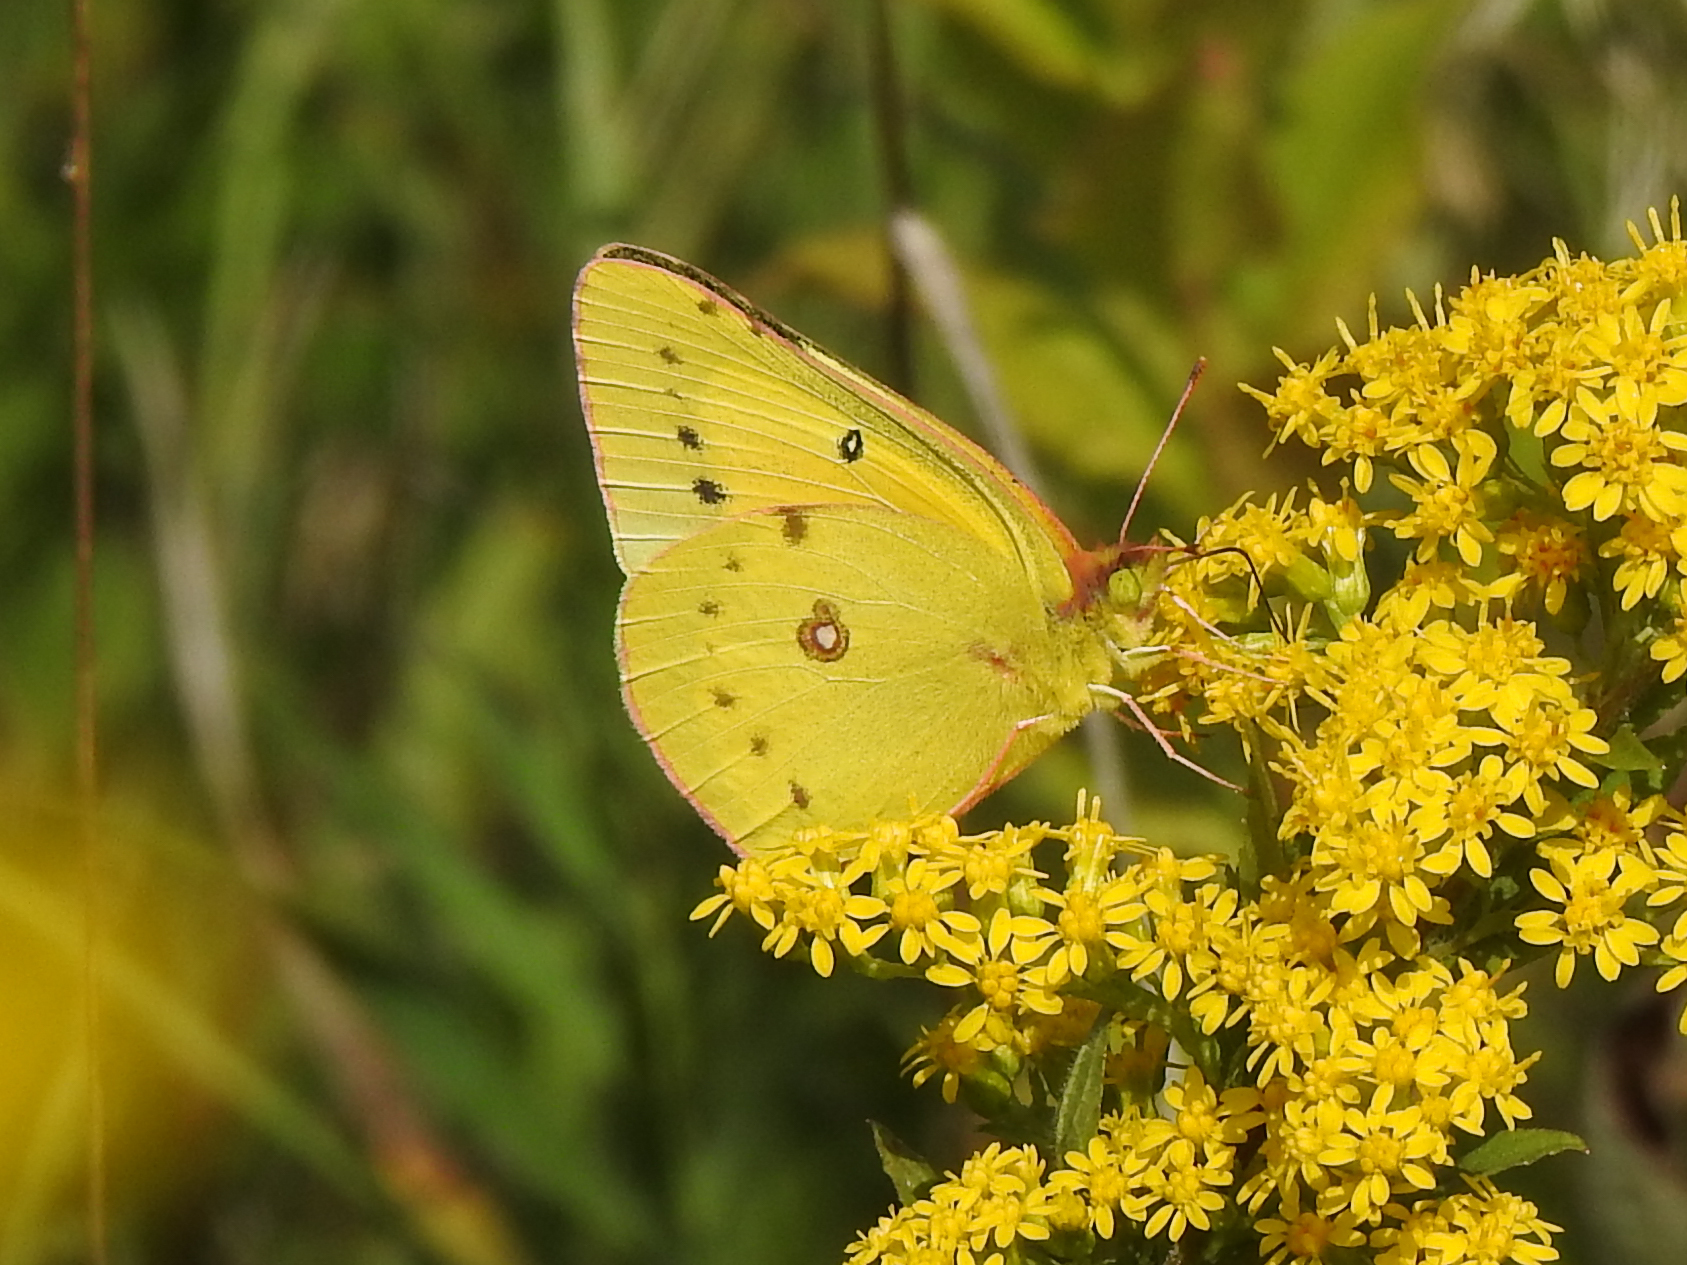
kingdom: Animalia
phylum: Arthropoda
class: Insecta
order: Lepidoptera
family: Pieridae
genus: Colias
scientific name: Colias eurytheme
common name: Alfalfa butterfly
